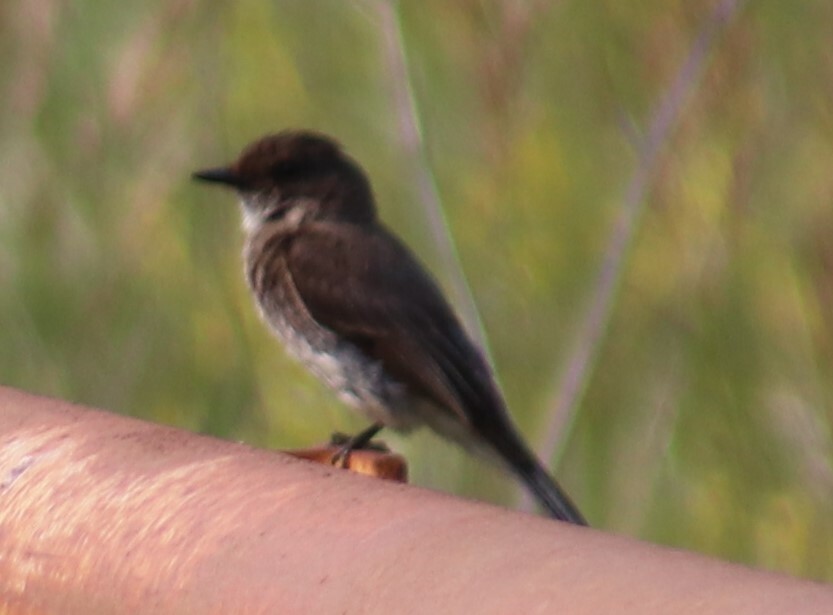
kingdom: Animalia
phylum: Chordata
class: Aves
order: Passeriformes
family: Tyrannidae
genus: Sayornis
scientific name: Sayornis phoebe
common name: Eastern phoebe
